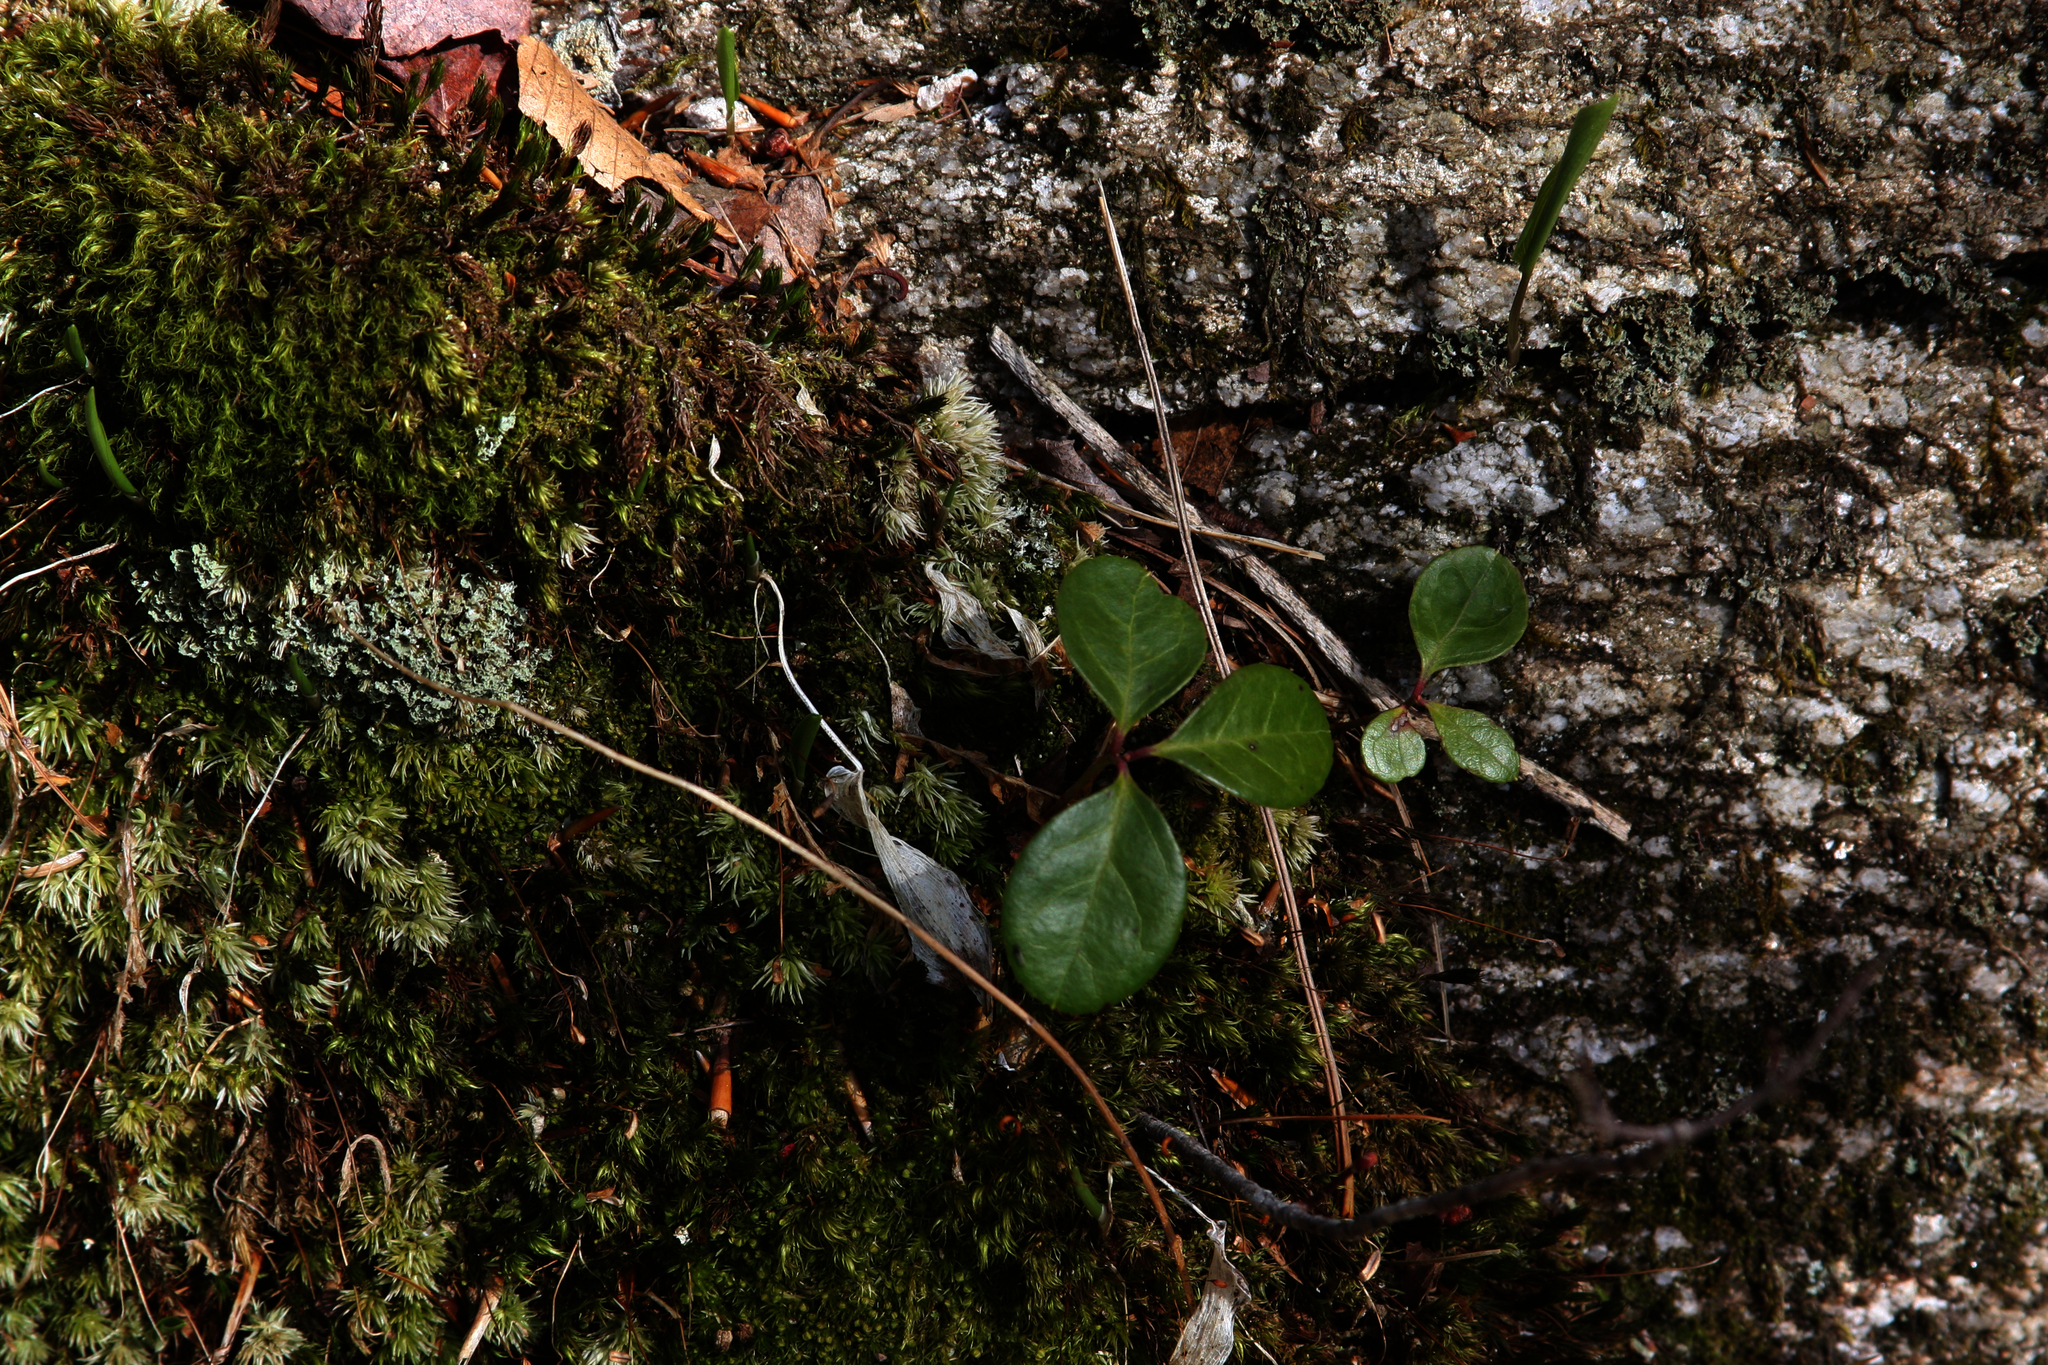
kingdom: Plantae
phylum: Tracheophyta
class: Magnoliopsida
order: Ericales
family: Ericaceae
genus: Gaultheria
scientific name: Gaultheria procumbens
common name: Checkerberry
